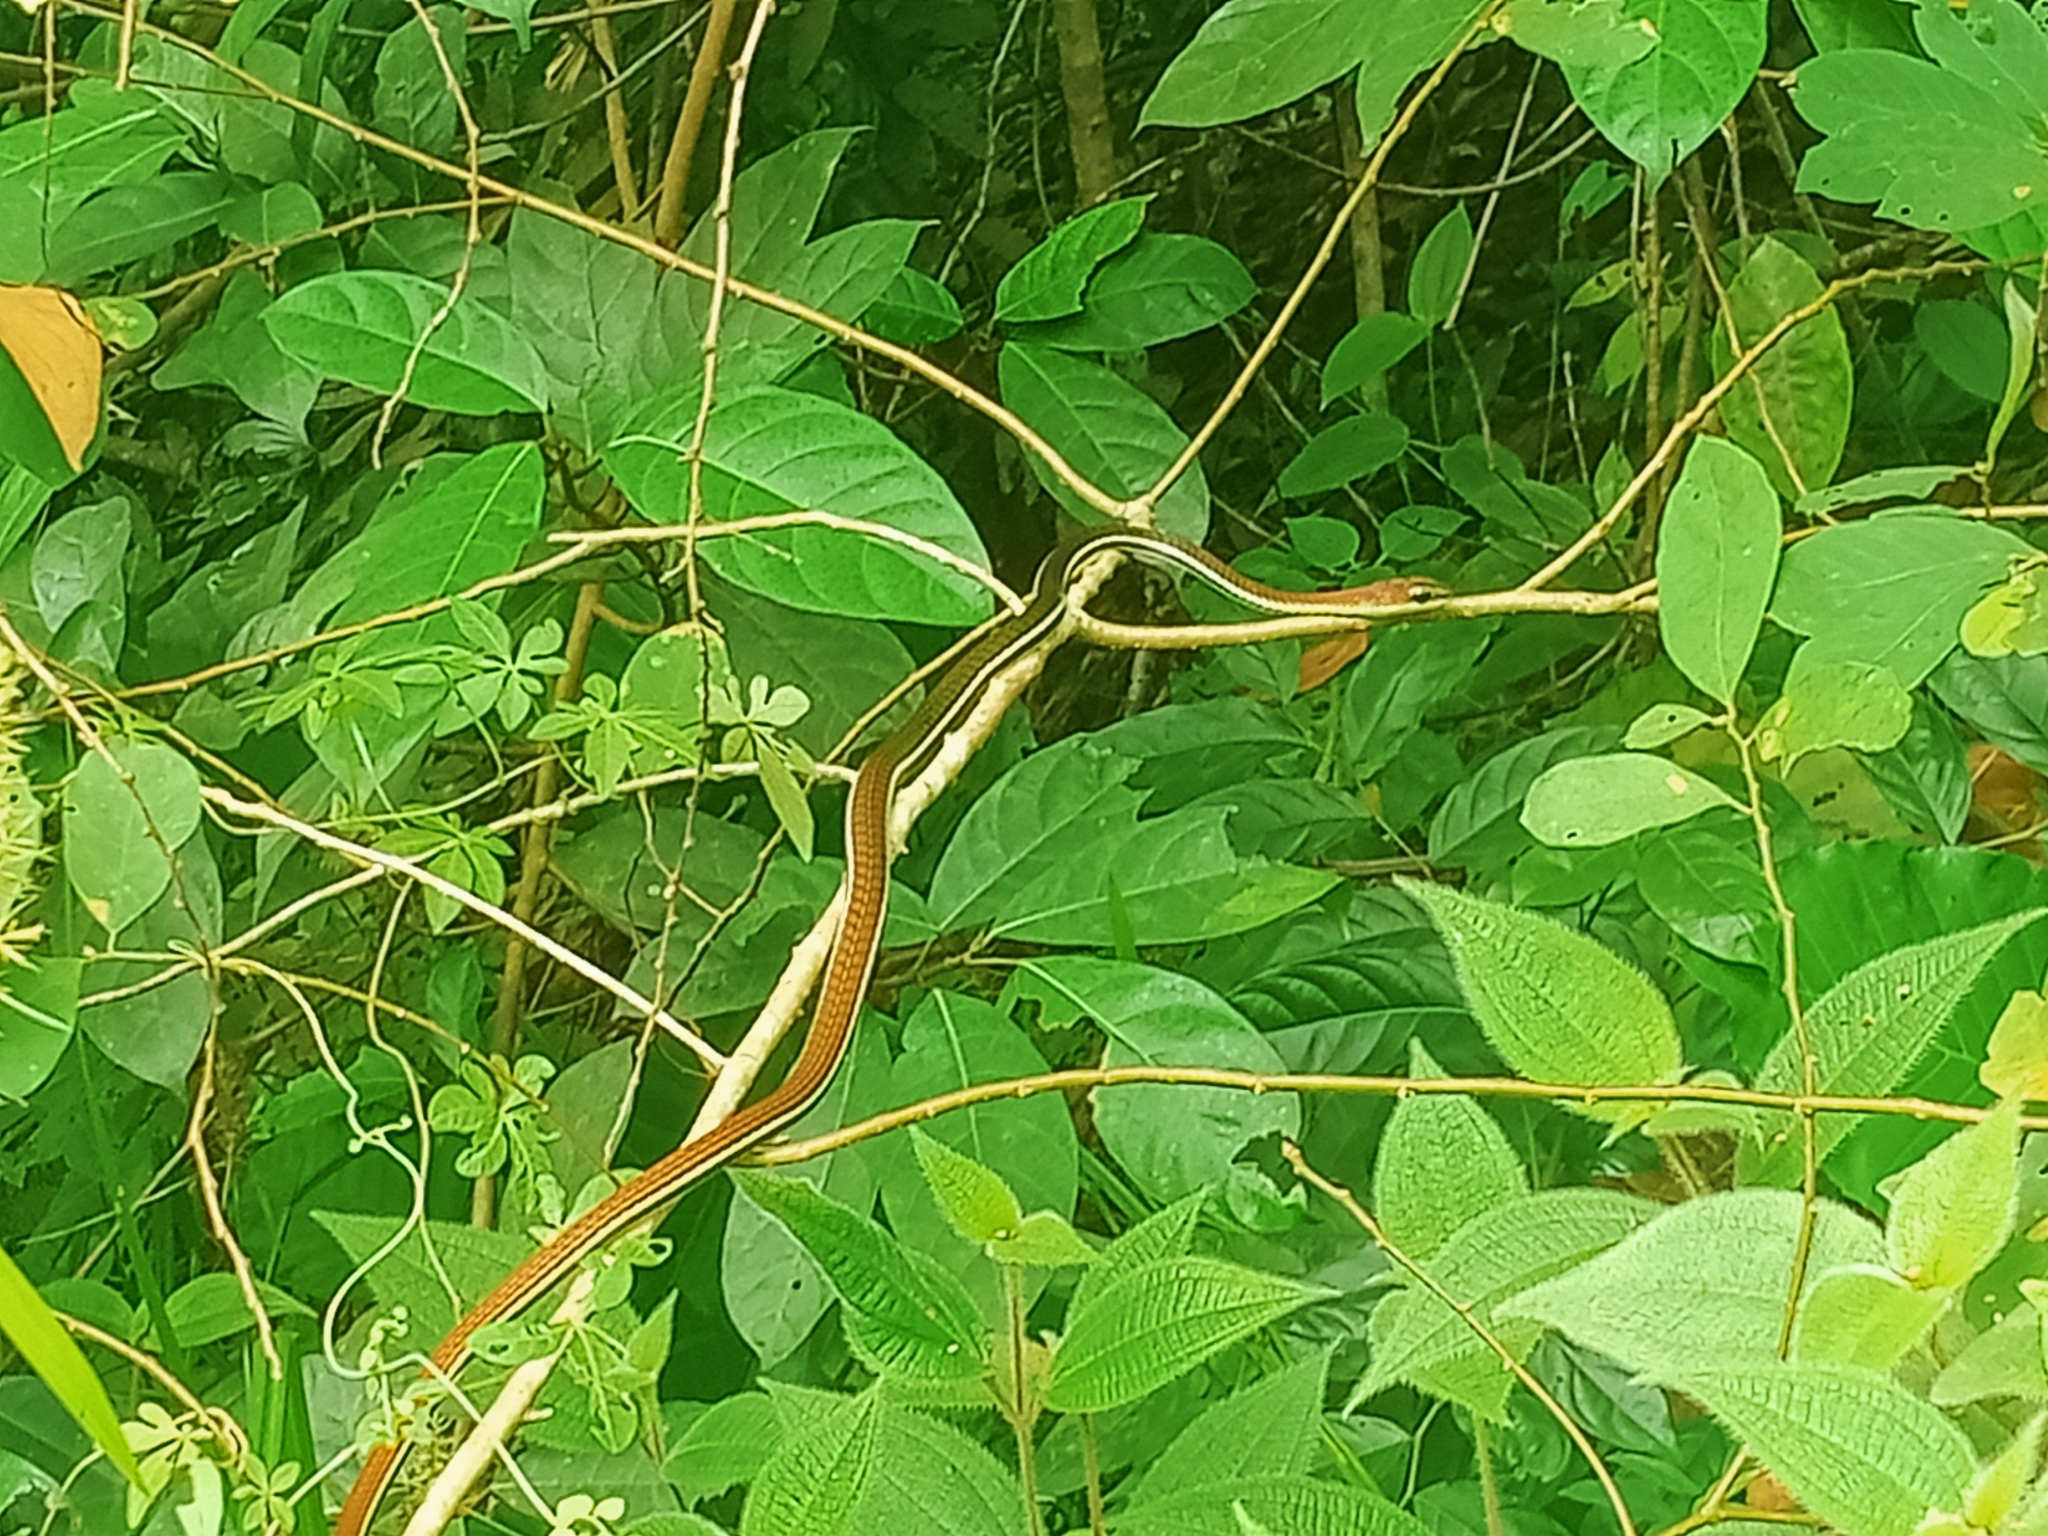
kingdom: Animalia
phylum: Chordata
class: Squamata
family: Colubridae
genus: Dendrelaphis
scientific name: Dendrelaphis caudolineatus
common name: Striped bronzeback
